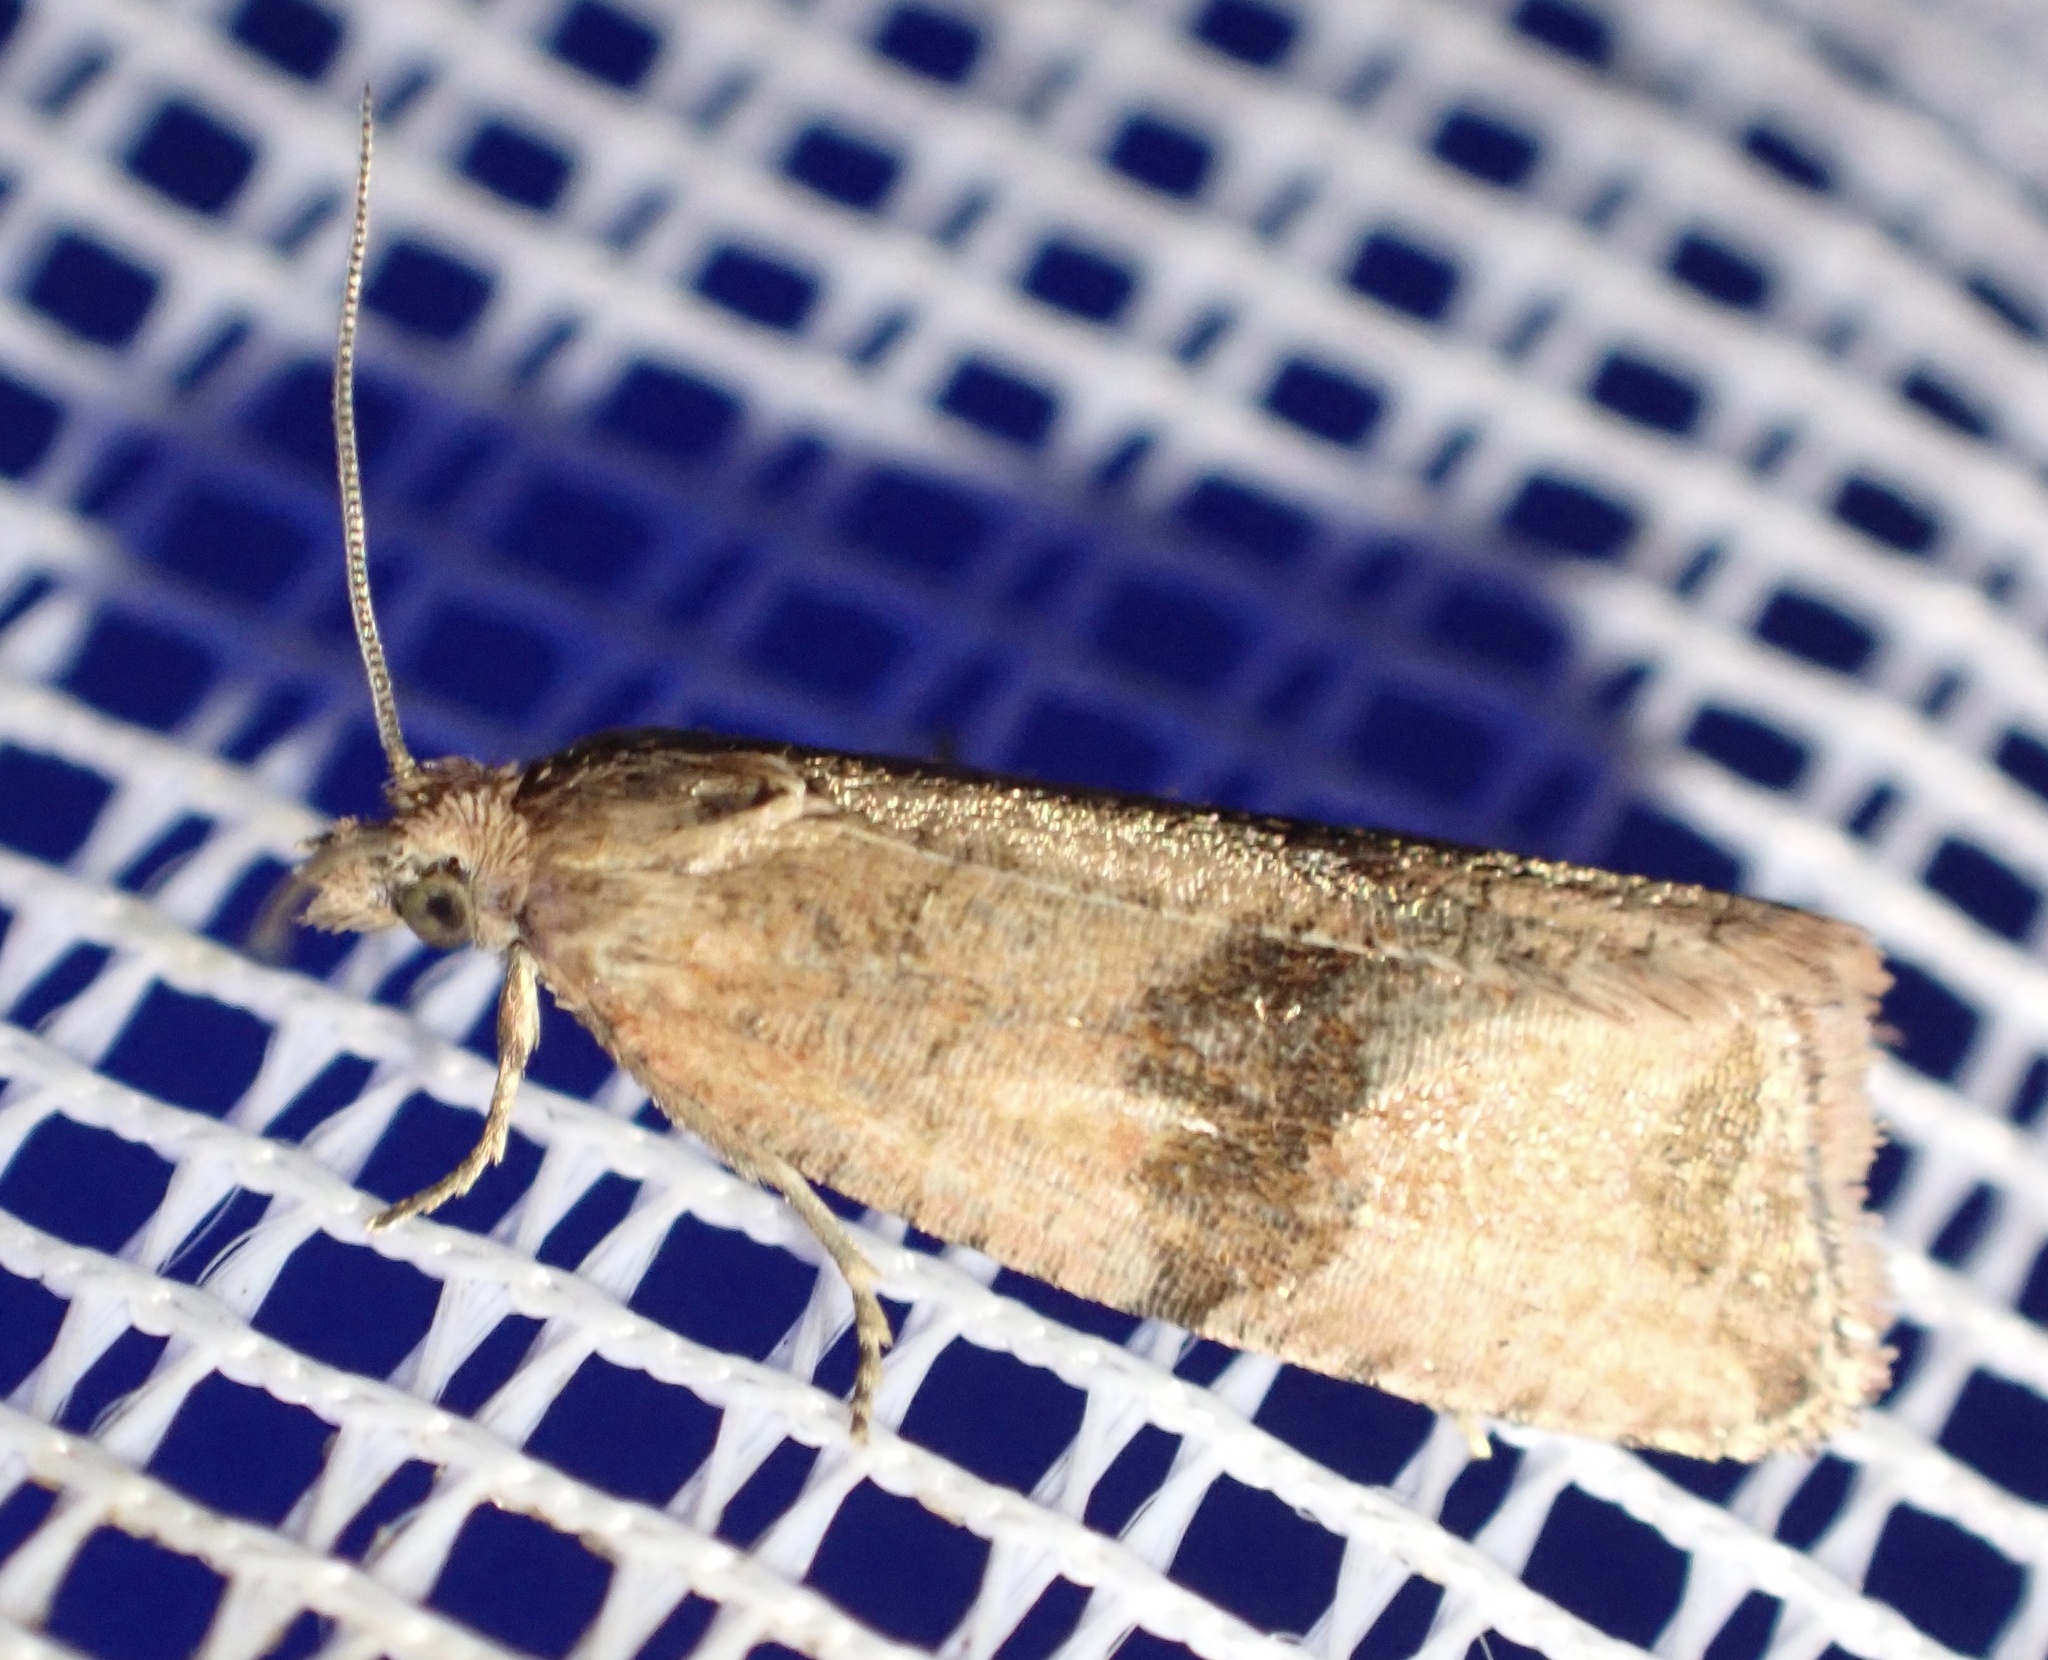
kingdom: Animalia
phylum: Arthropoda
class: Insecta
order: Lepidoptera
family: Tortricidae
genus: Celypha
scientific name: Celypha striana
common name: Barred marble
